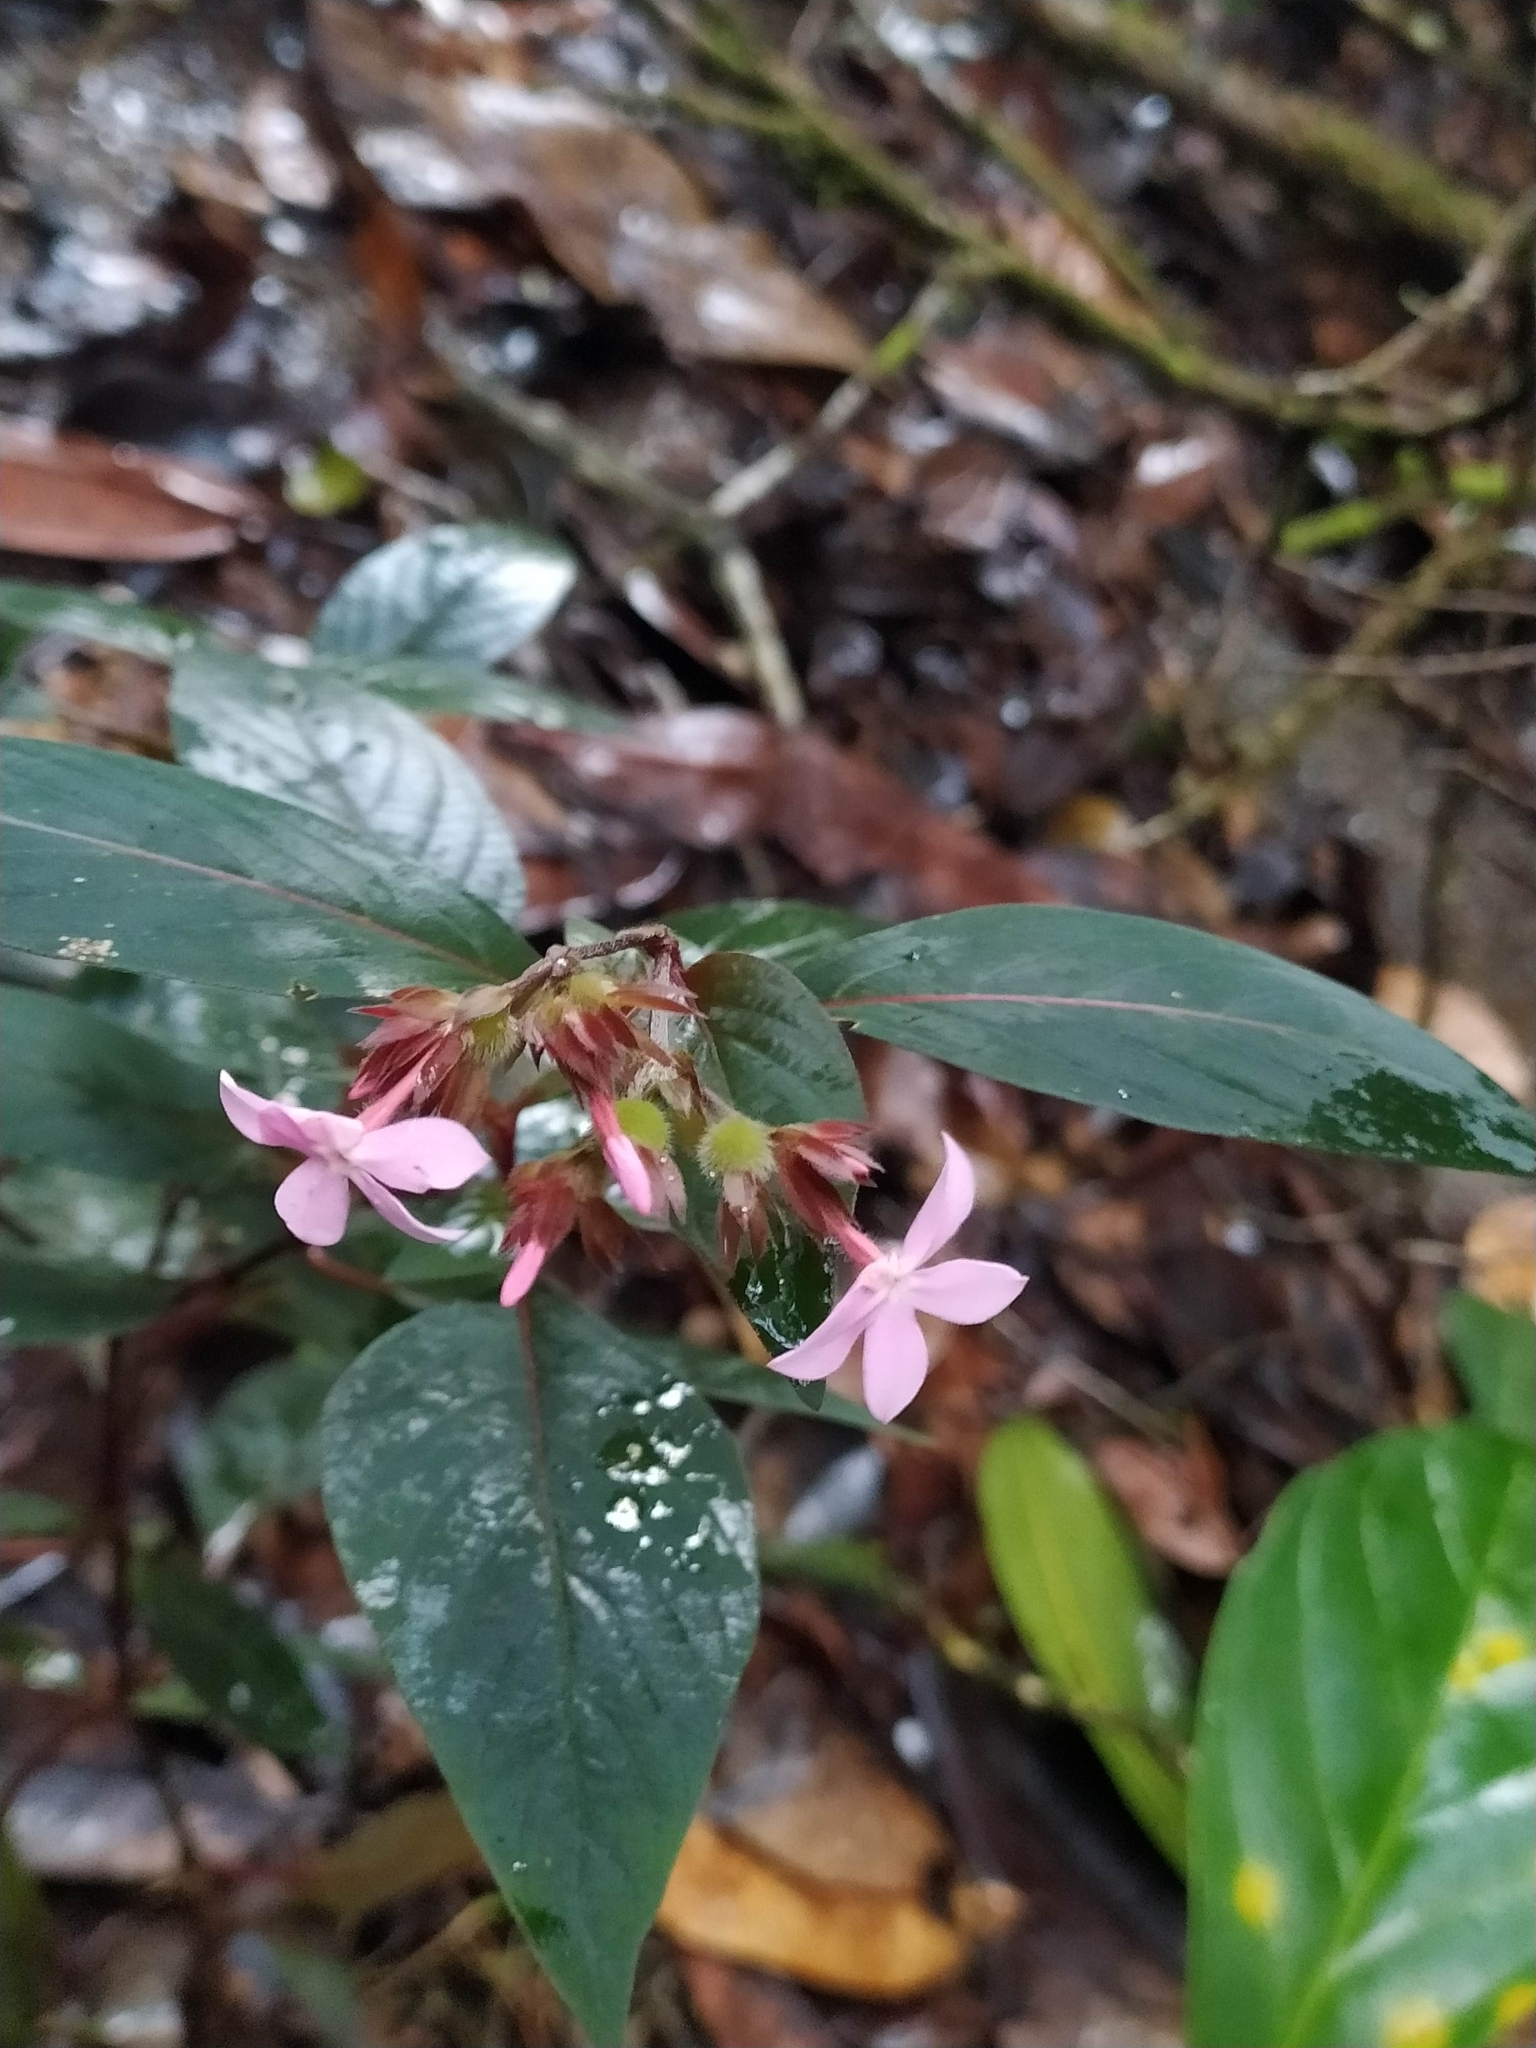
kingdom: Plantae
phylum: Tracheophyta
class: Magnoliopsida
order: Gentianales
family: Rubiaceae
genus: Sipanea
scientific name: Sipanea wilson-brownei
